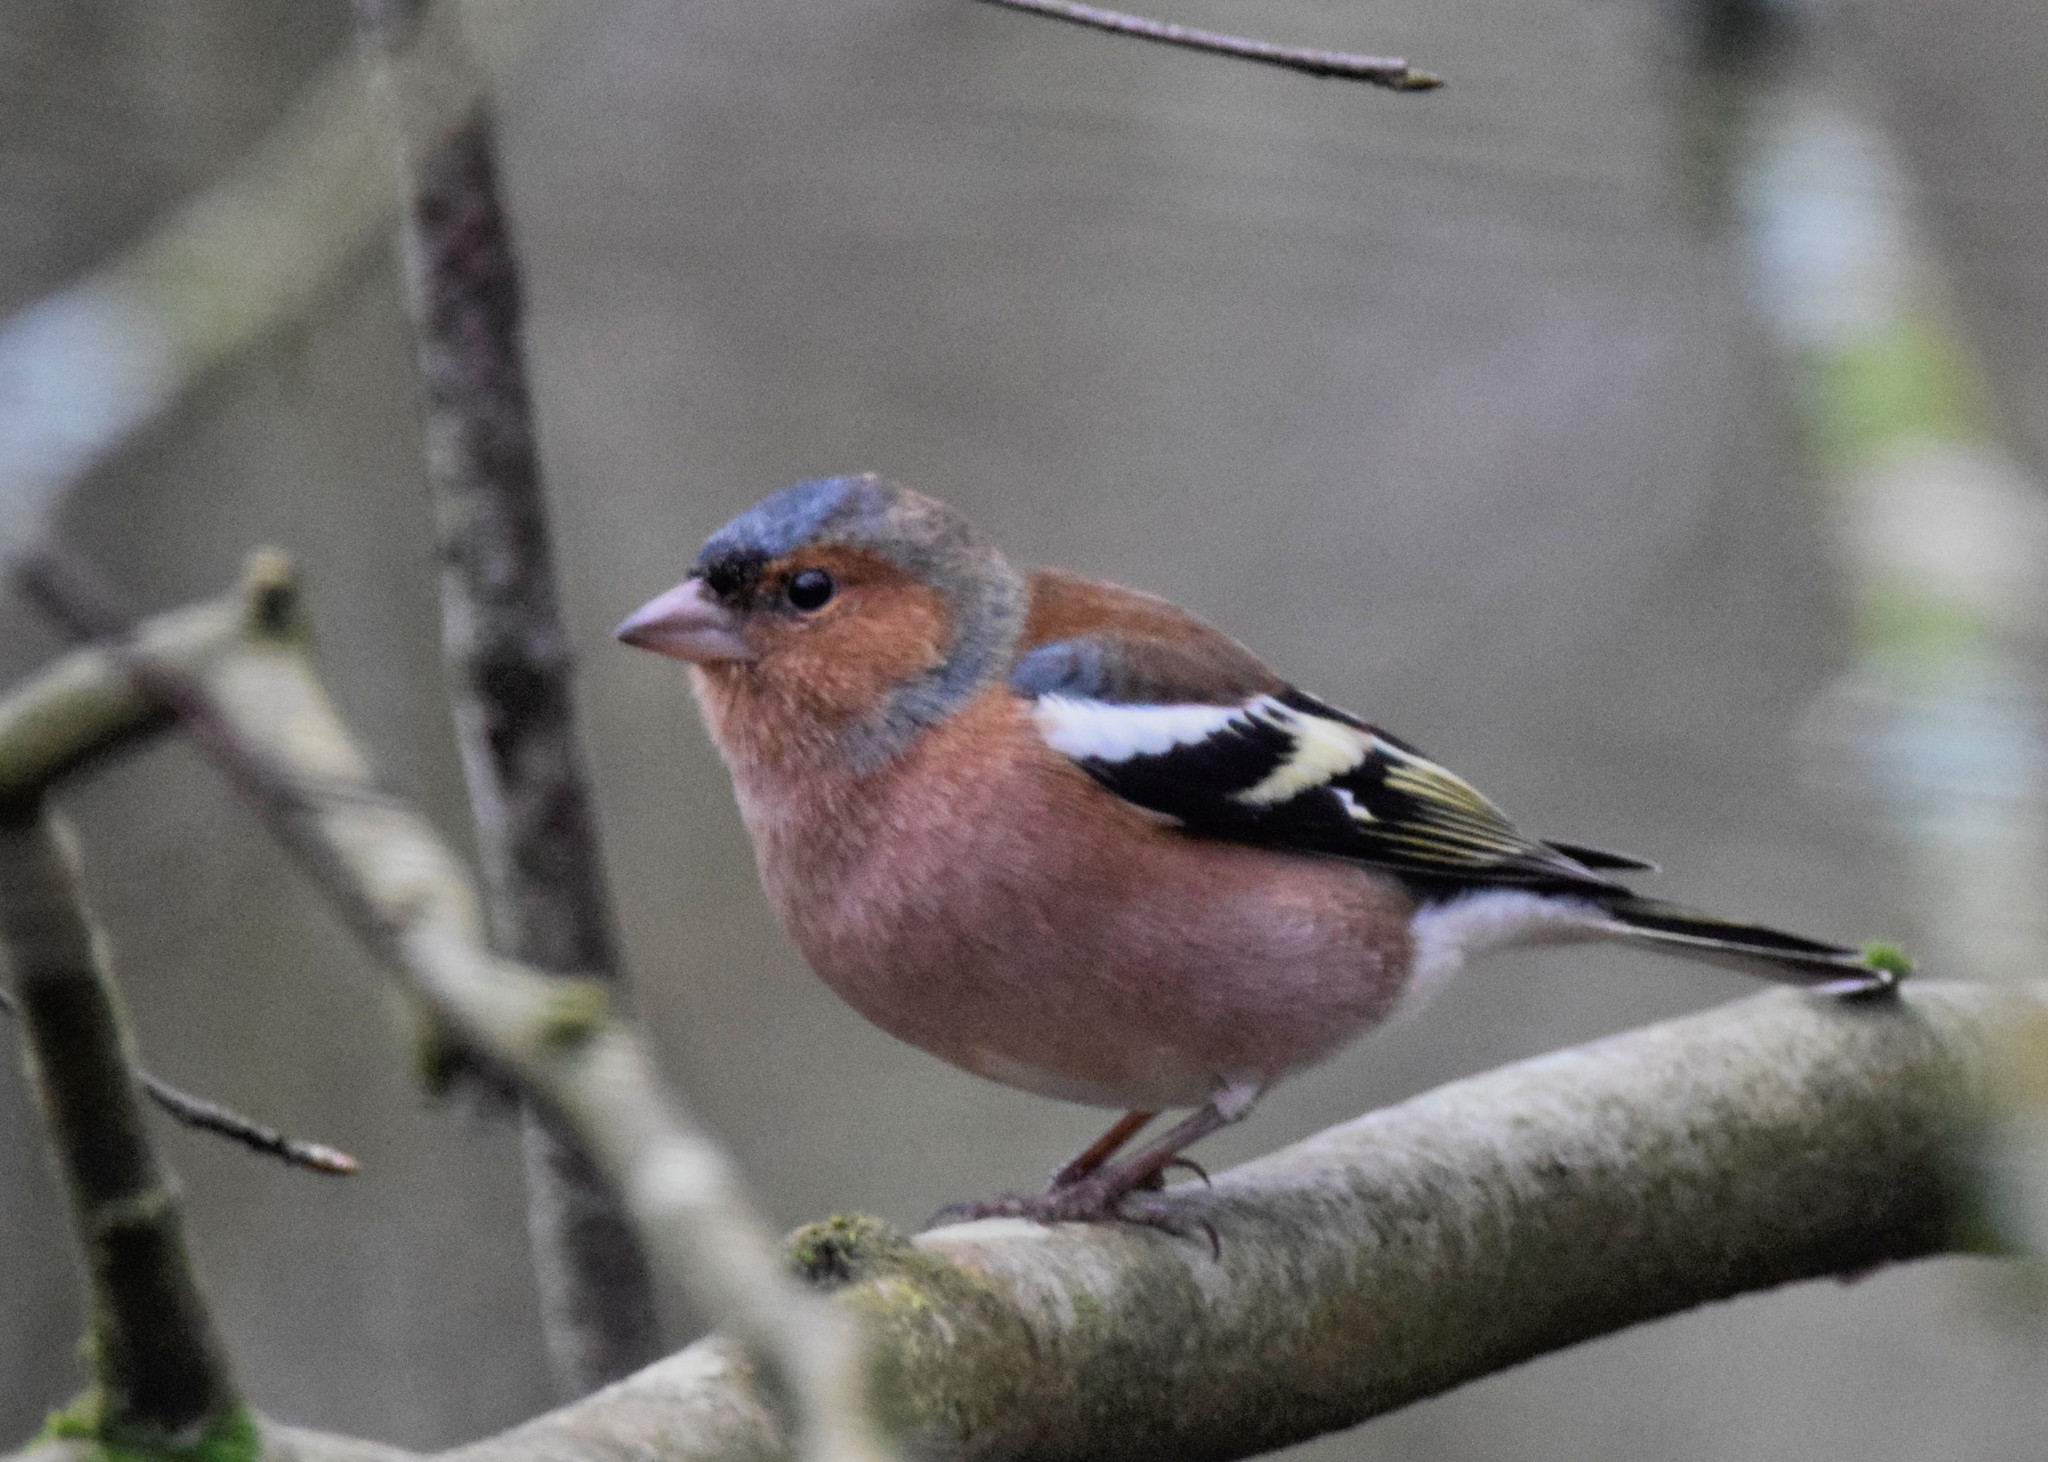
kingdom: Animalia
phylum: Chordata
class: Aves
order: Passeriformes
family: Fringillidae
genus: Fringilla
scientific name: Fringilla coelebs
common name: Common chaffinch
